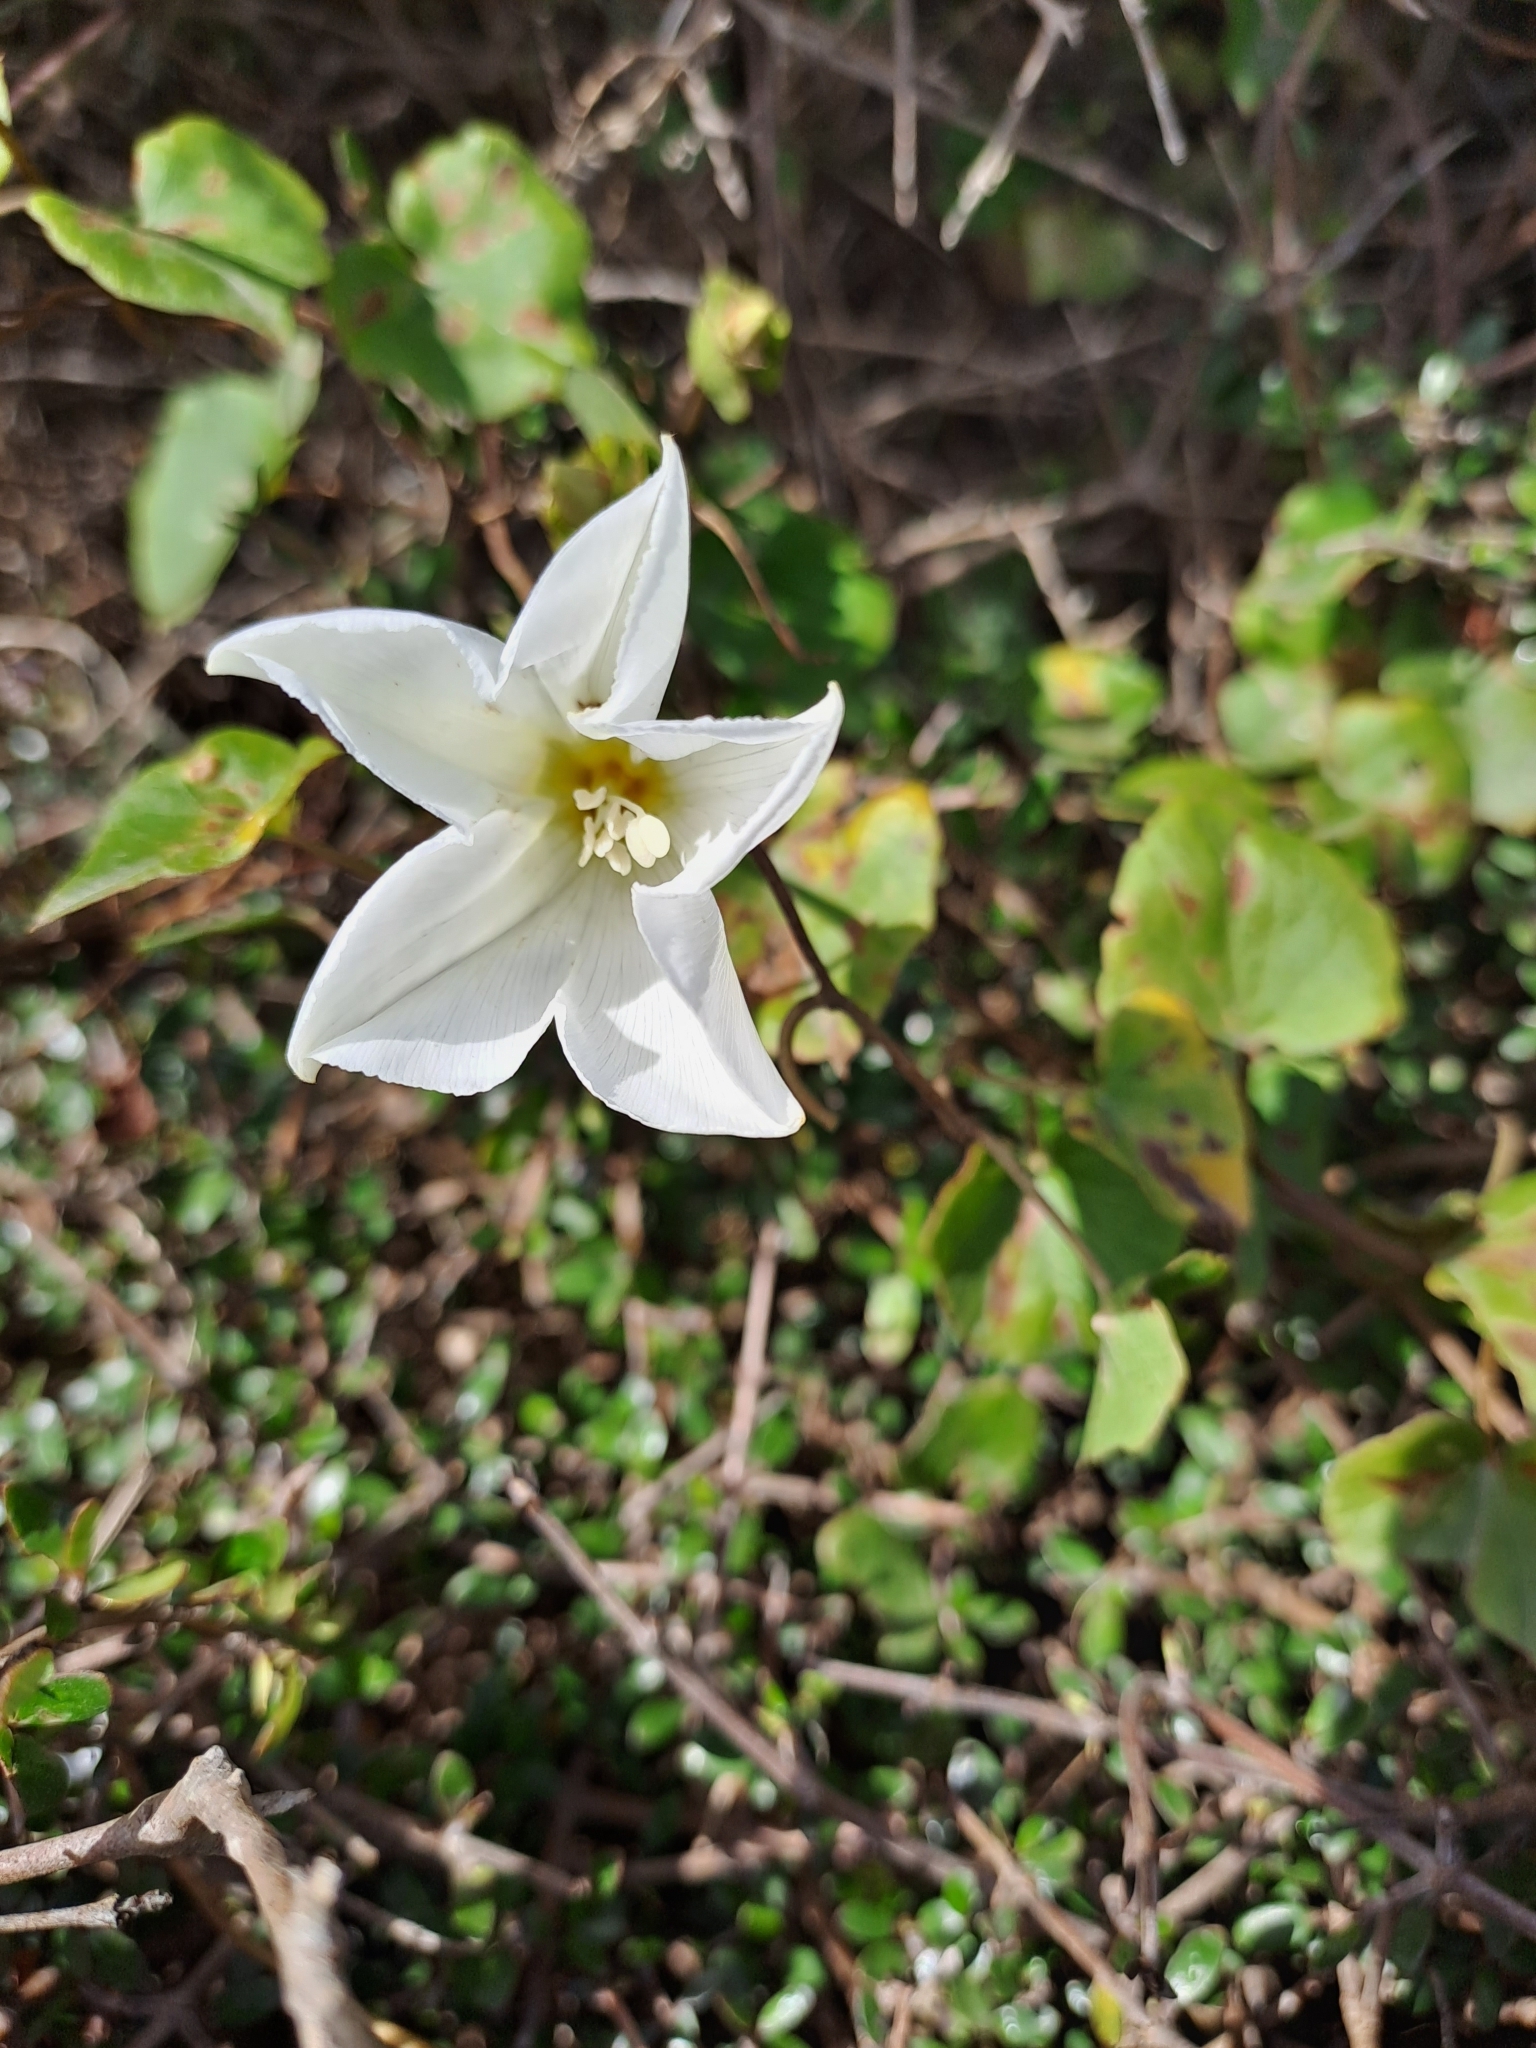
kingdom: Plantae
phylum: Tracheophyta
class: Magnoliopsida
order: Solanales
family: Convolvulaceae
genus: Calystegia
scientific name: Calystegia tuguriorum
